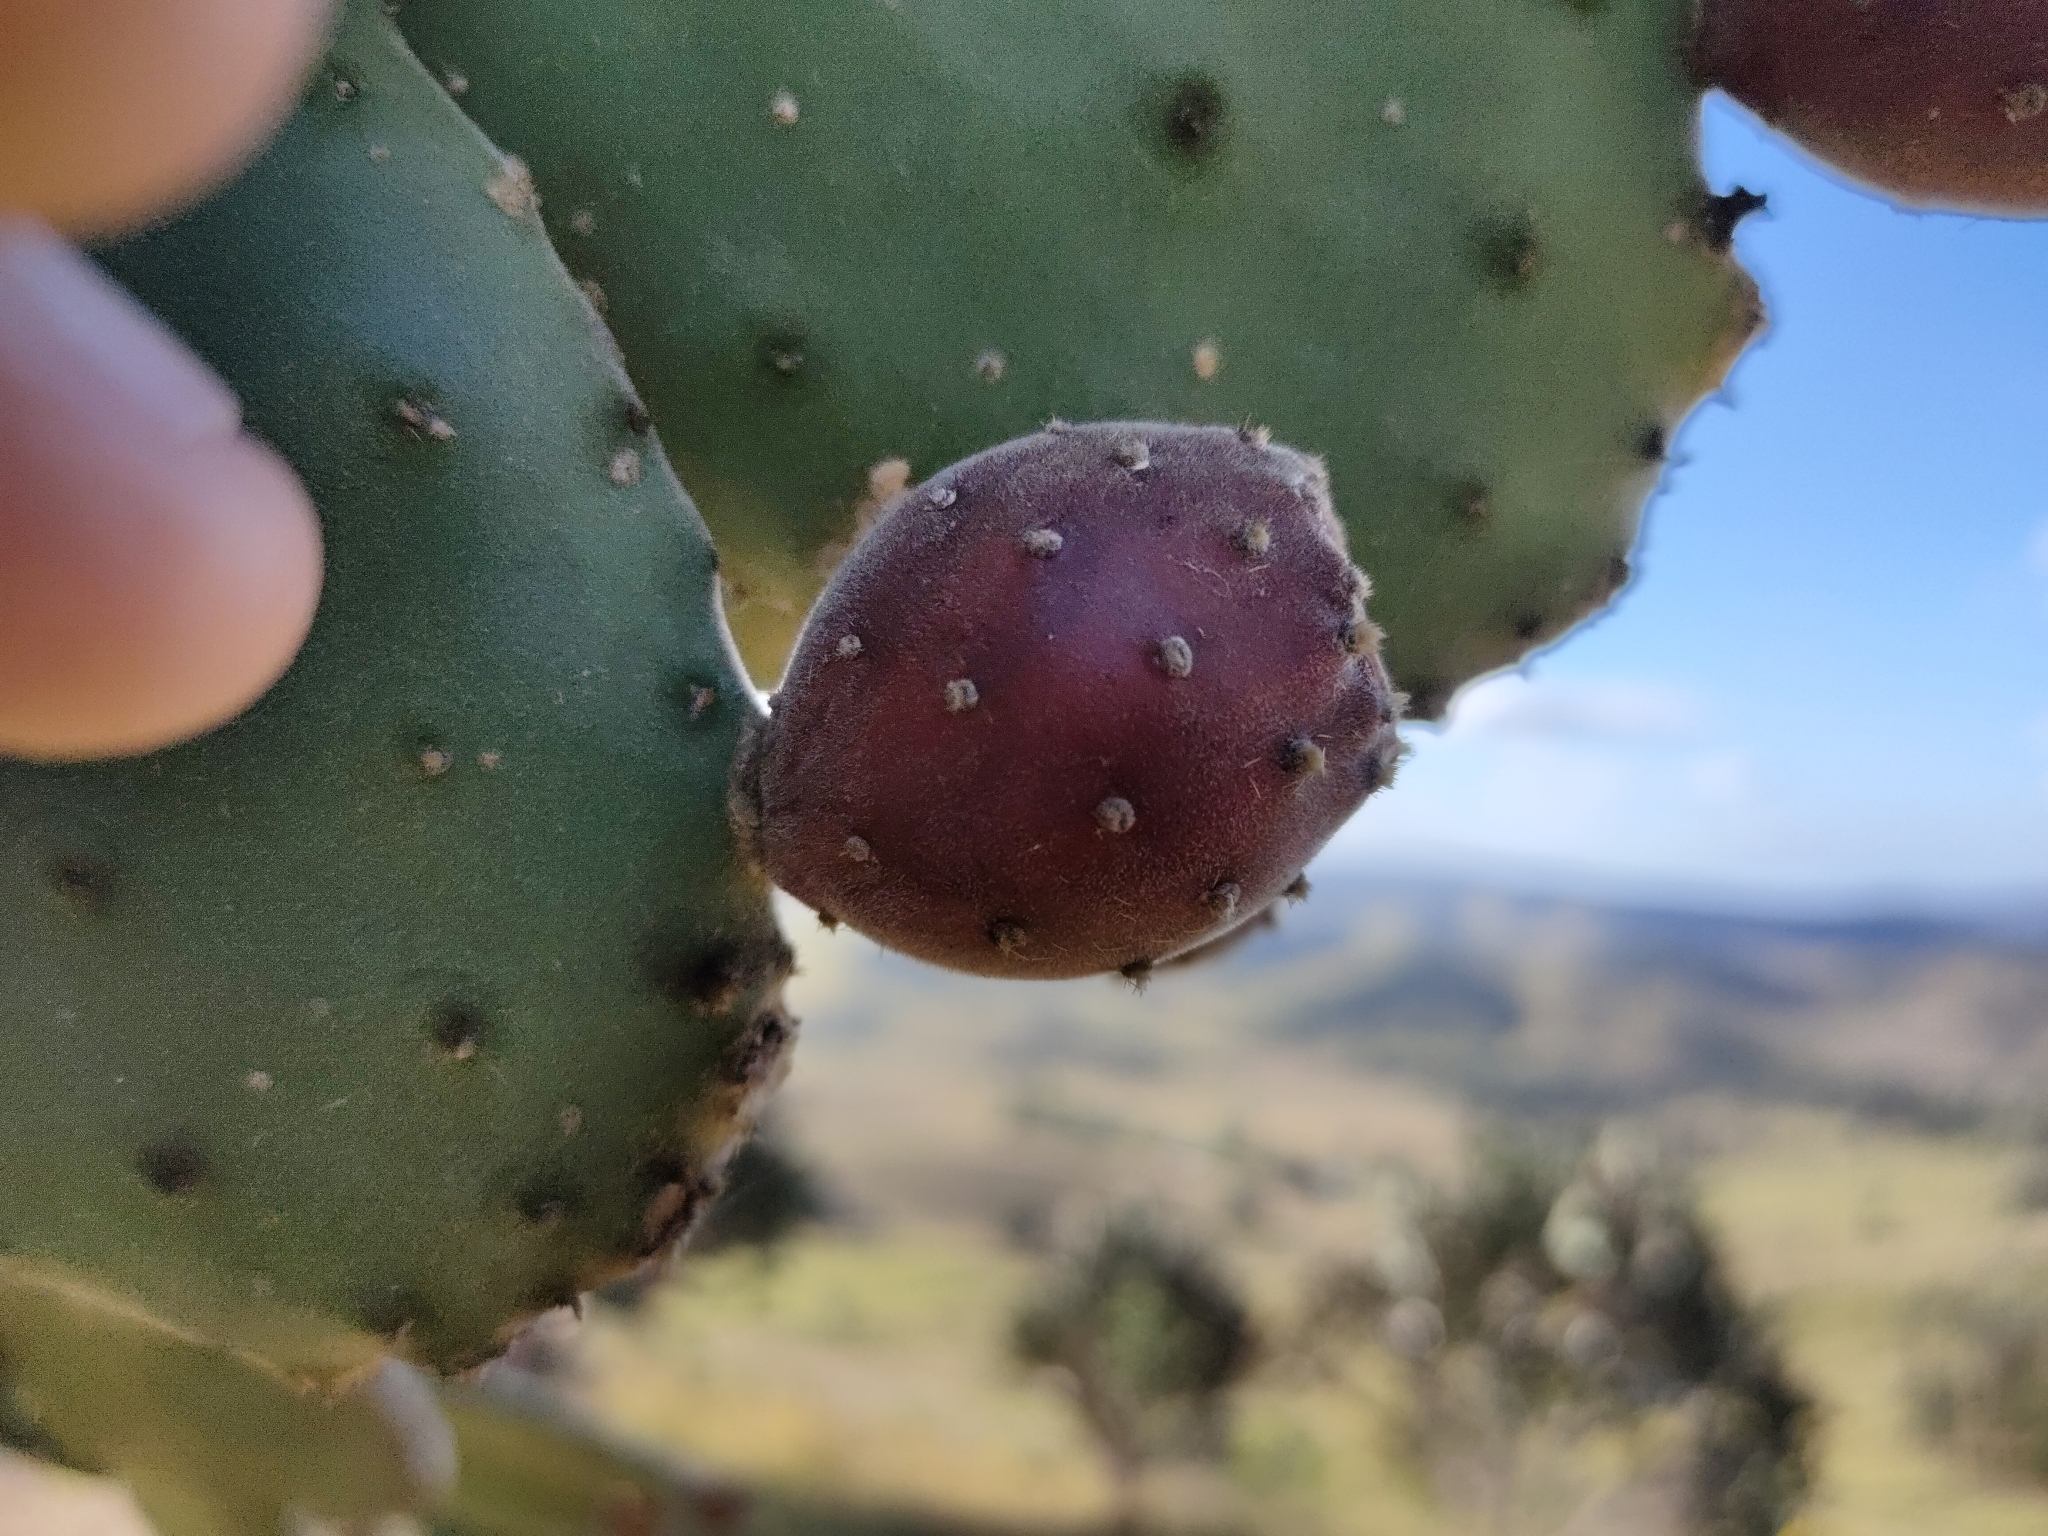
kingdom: Plantae
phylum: Tracheophyta
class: Magnoliopsida
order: Caryophyllales
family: Cactaceae
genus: Opuntia
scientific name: Opuntia tomentosa
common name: Woollyjoint pricklypear
